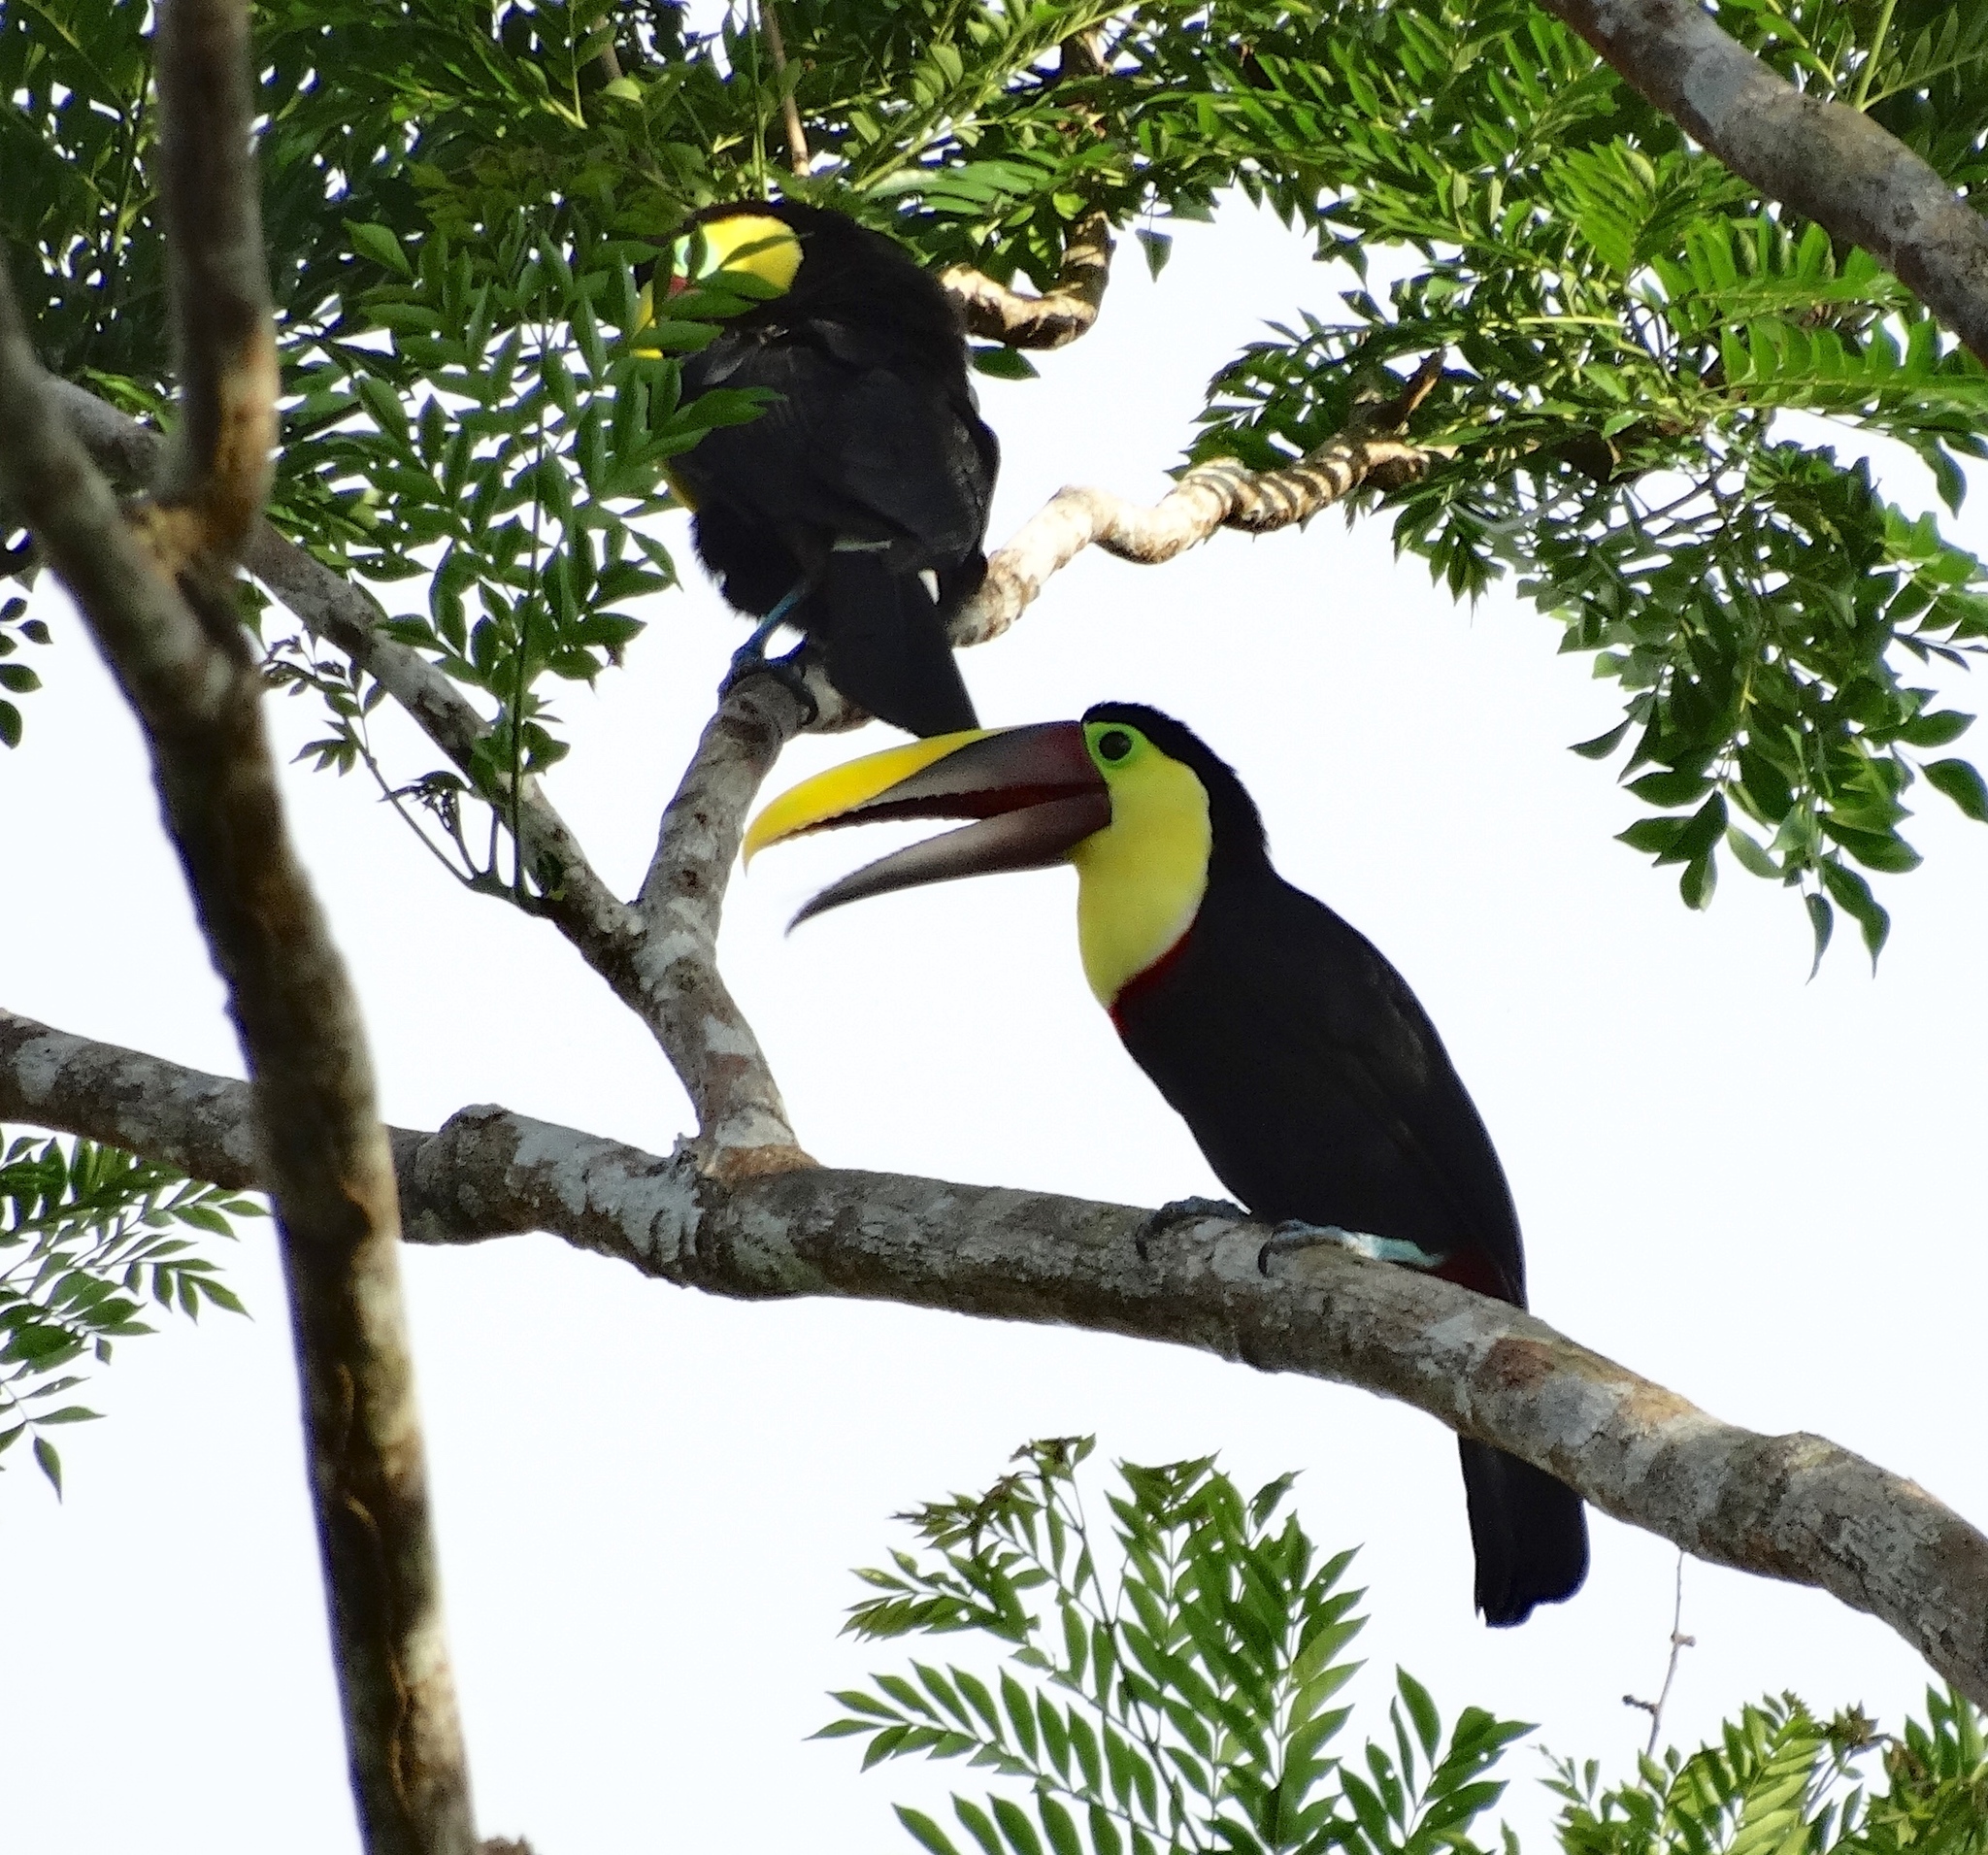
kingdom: Animalia
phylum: Chordata
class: Aves
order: Piciformes
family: Ramphastidae
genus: Ramphastos
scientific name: Ramphastos ambiguus
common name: Yellow-throated toucan
